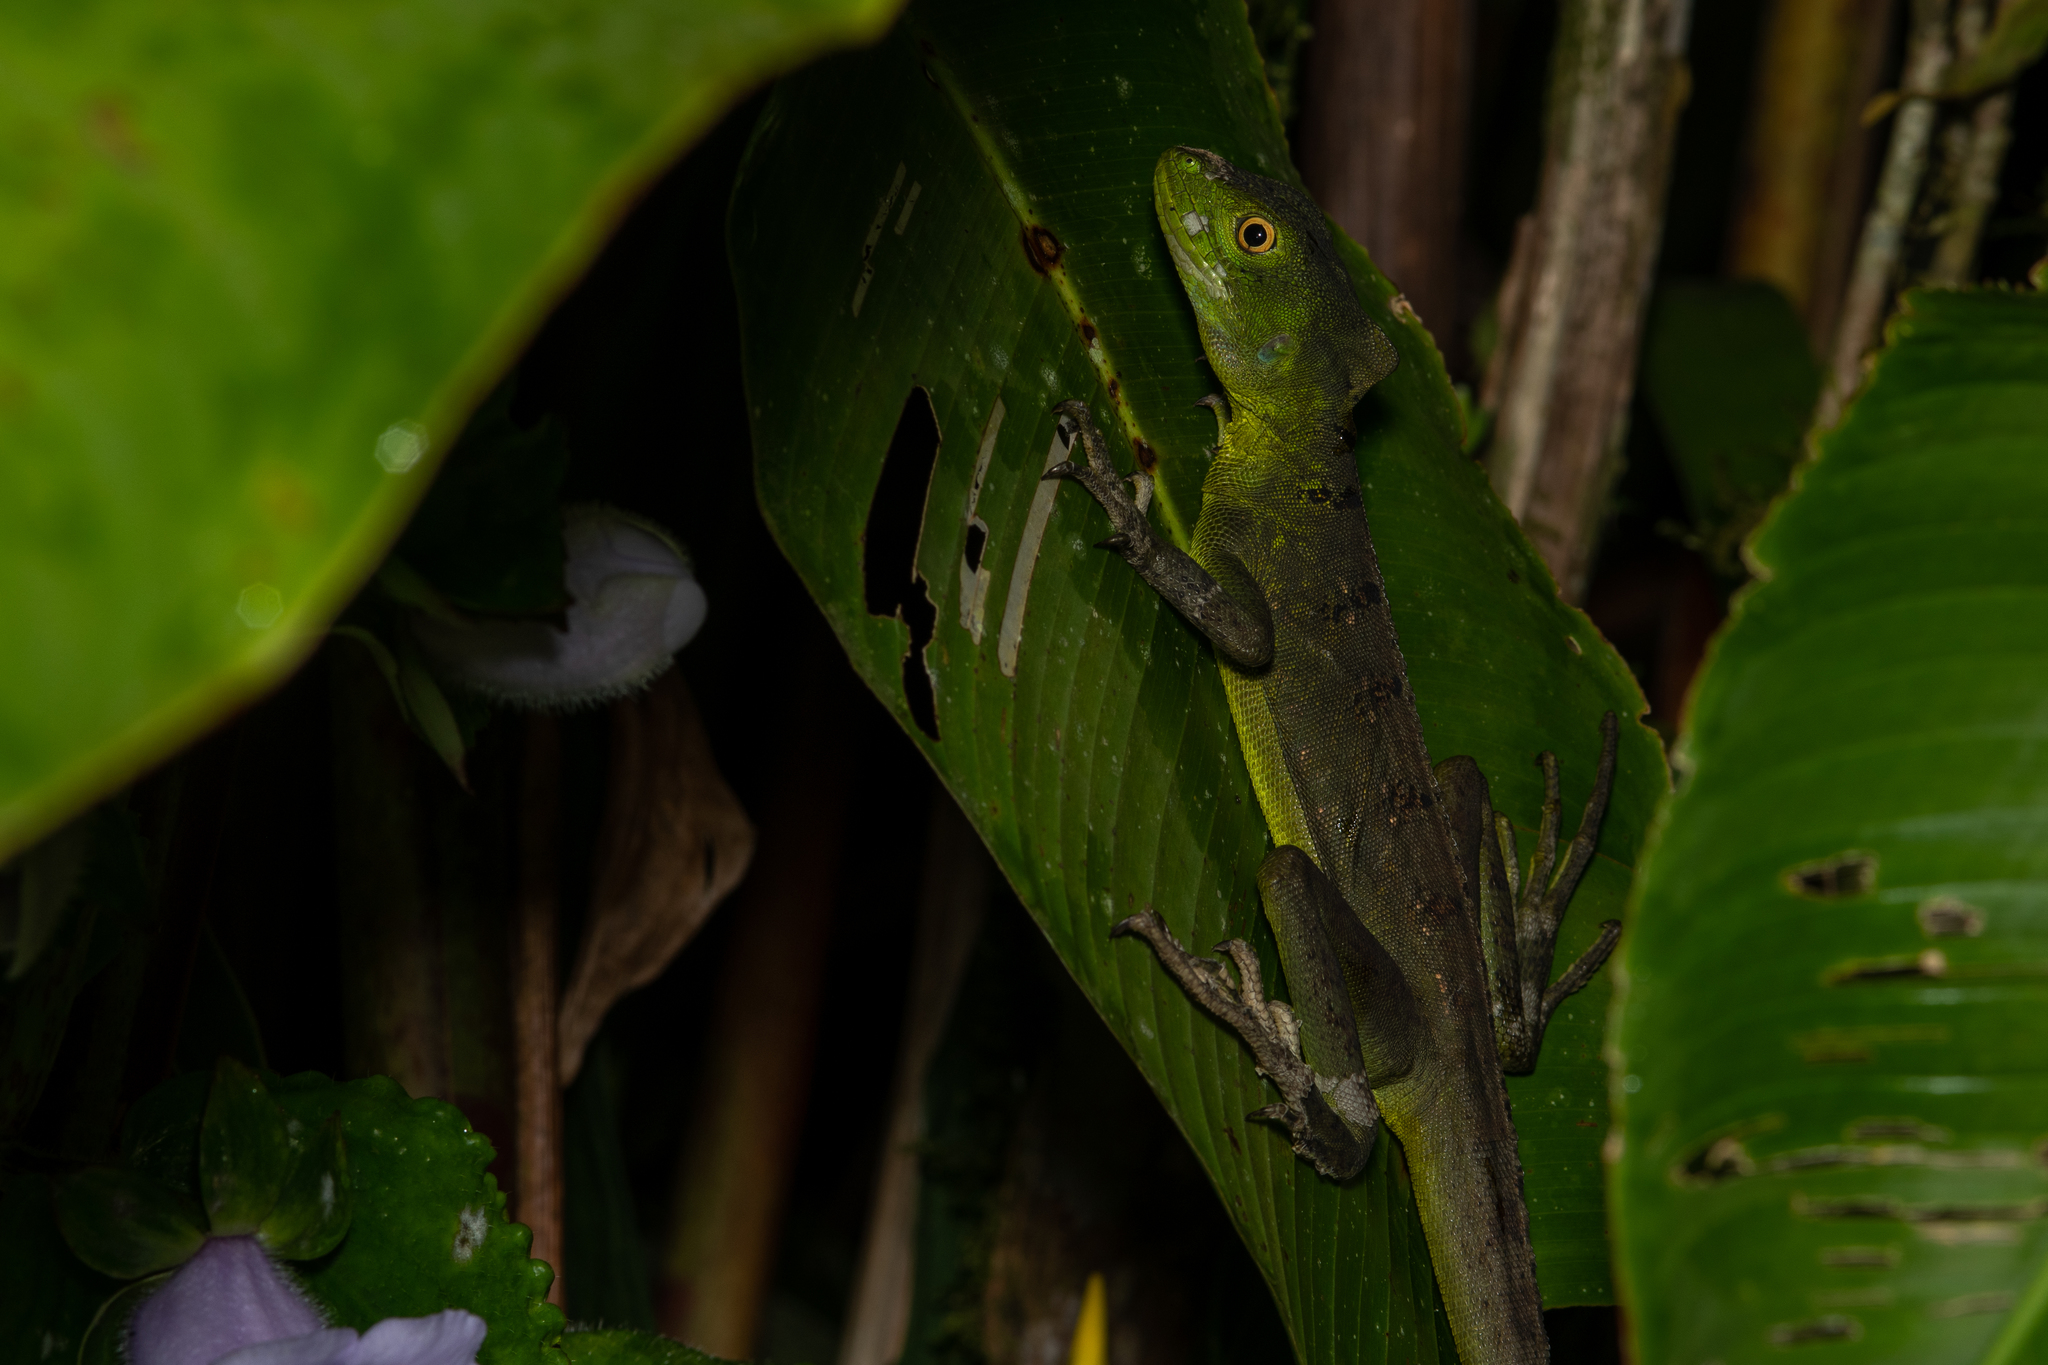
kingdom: Animalia
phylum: Chordata
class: Squamata
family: Corytophanidae
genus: Basiliscus
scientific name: Basiliscus plumifrons
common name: Green basilisk
